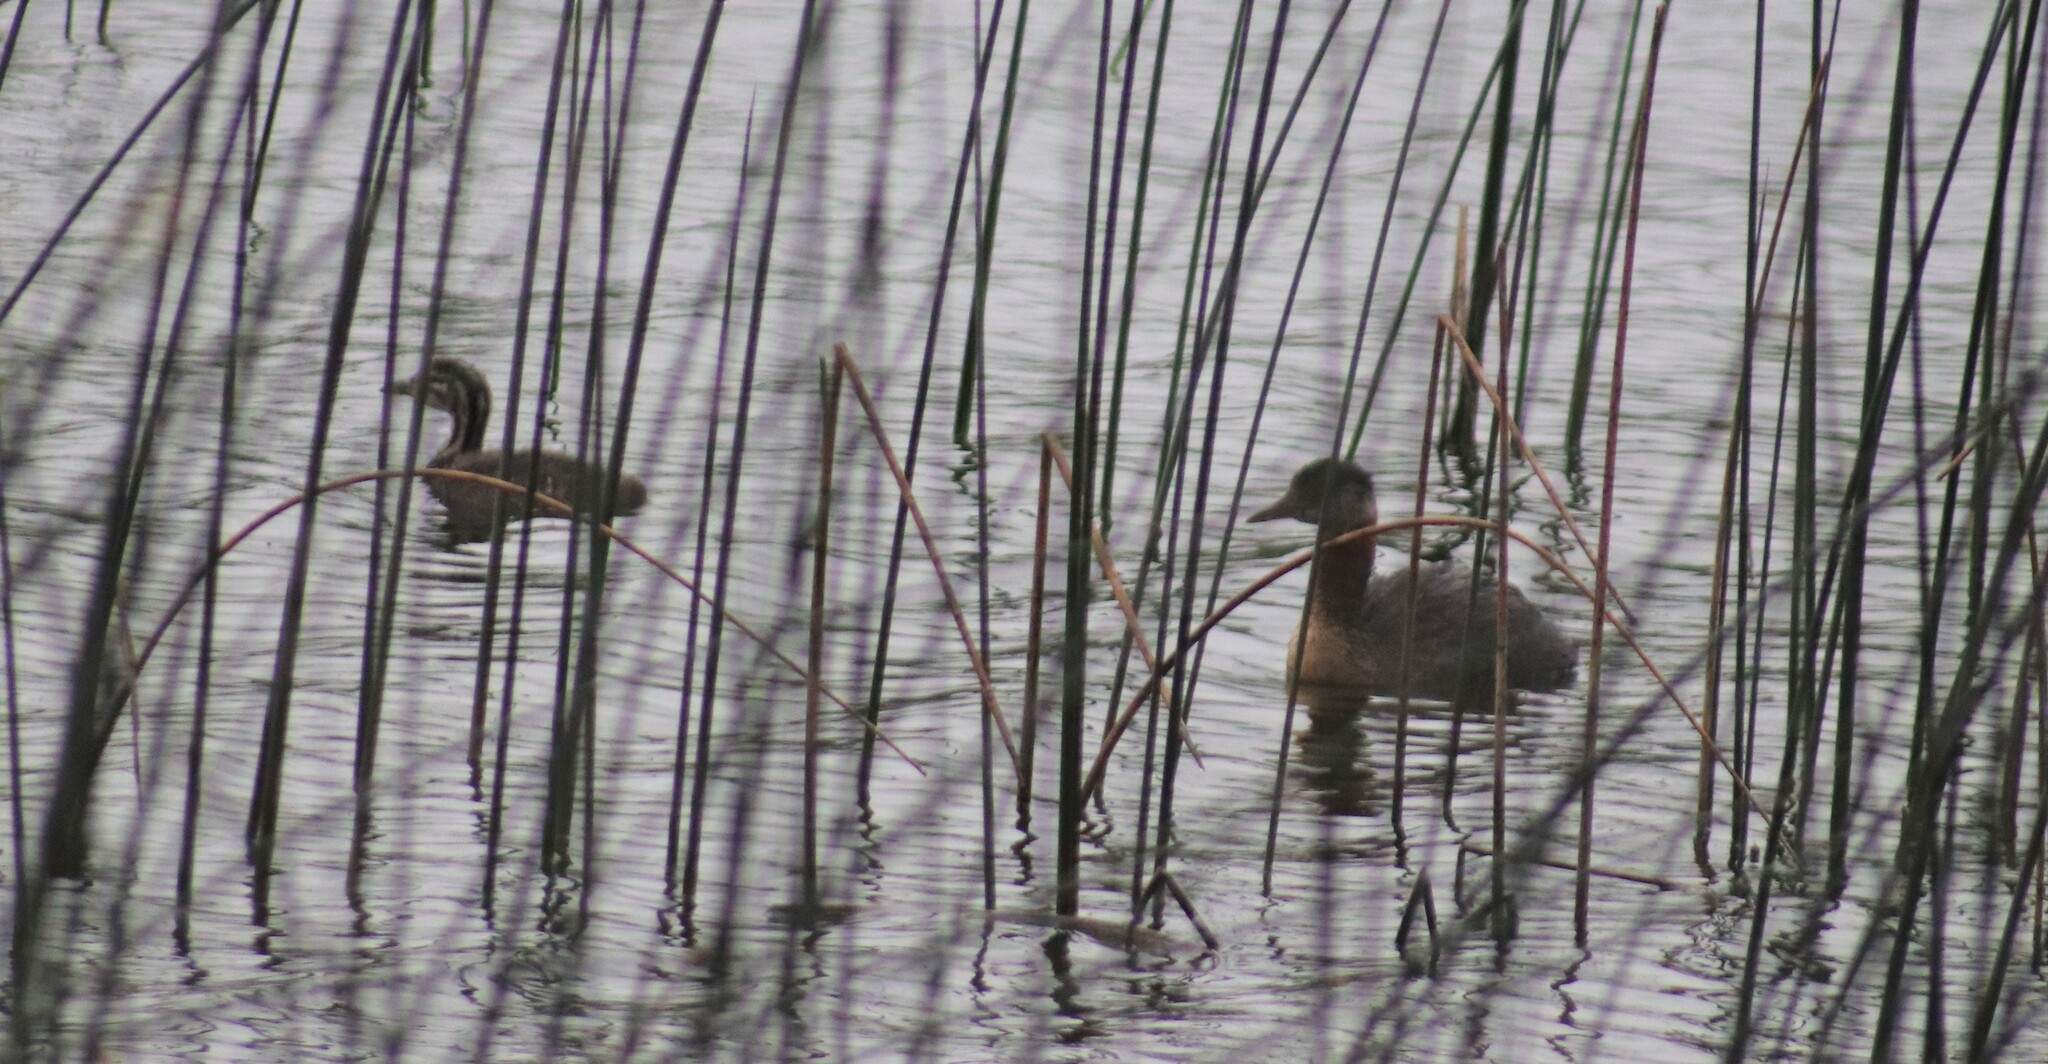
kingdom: Animalia
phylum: Chordata
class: Aves
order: Podicipediformes
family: Podicipedidae
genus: Podiceps
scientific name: Podiceps grisegena
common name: Red-necked grebe
